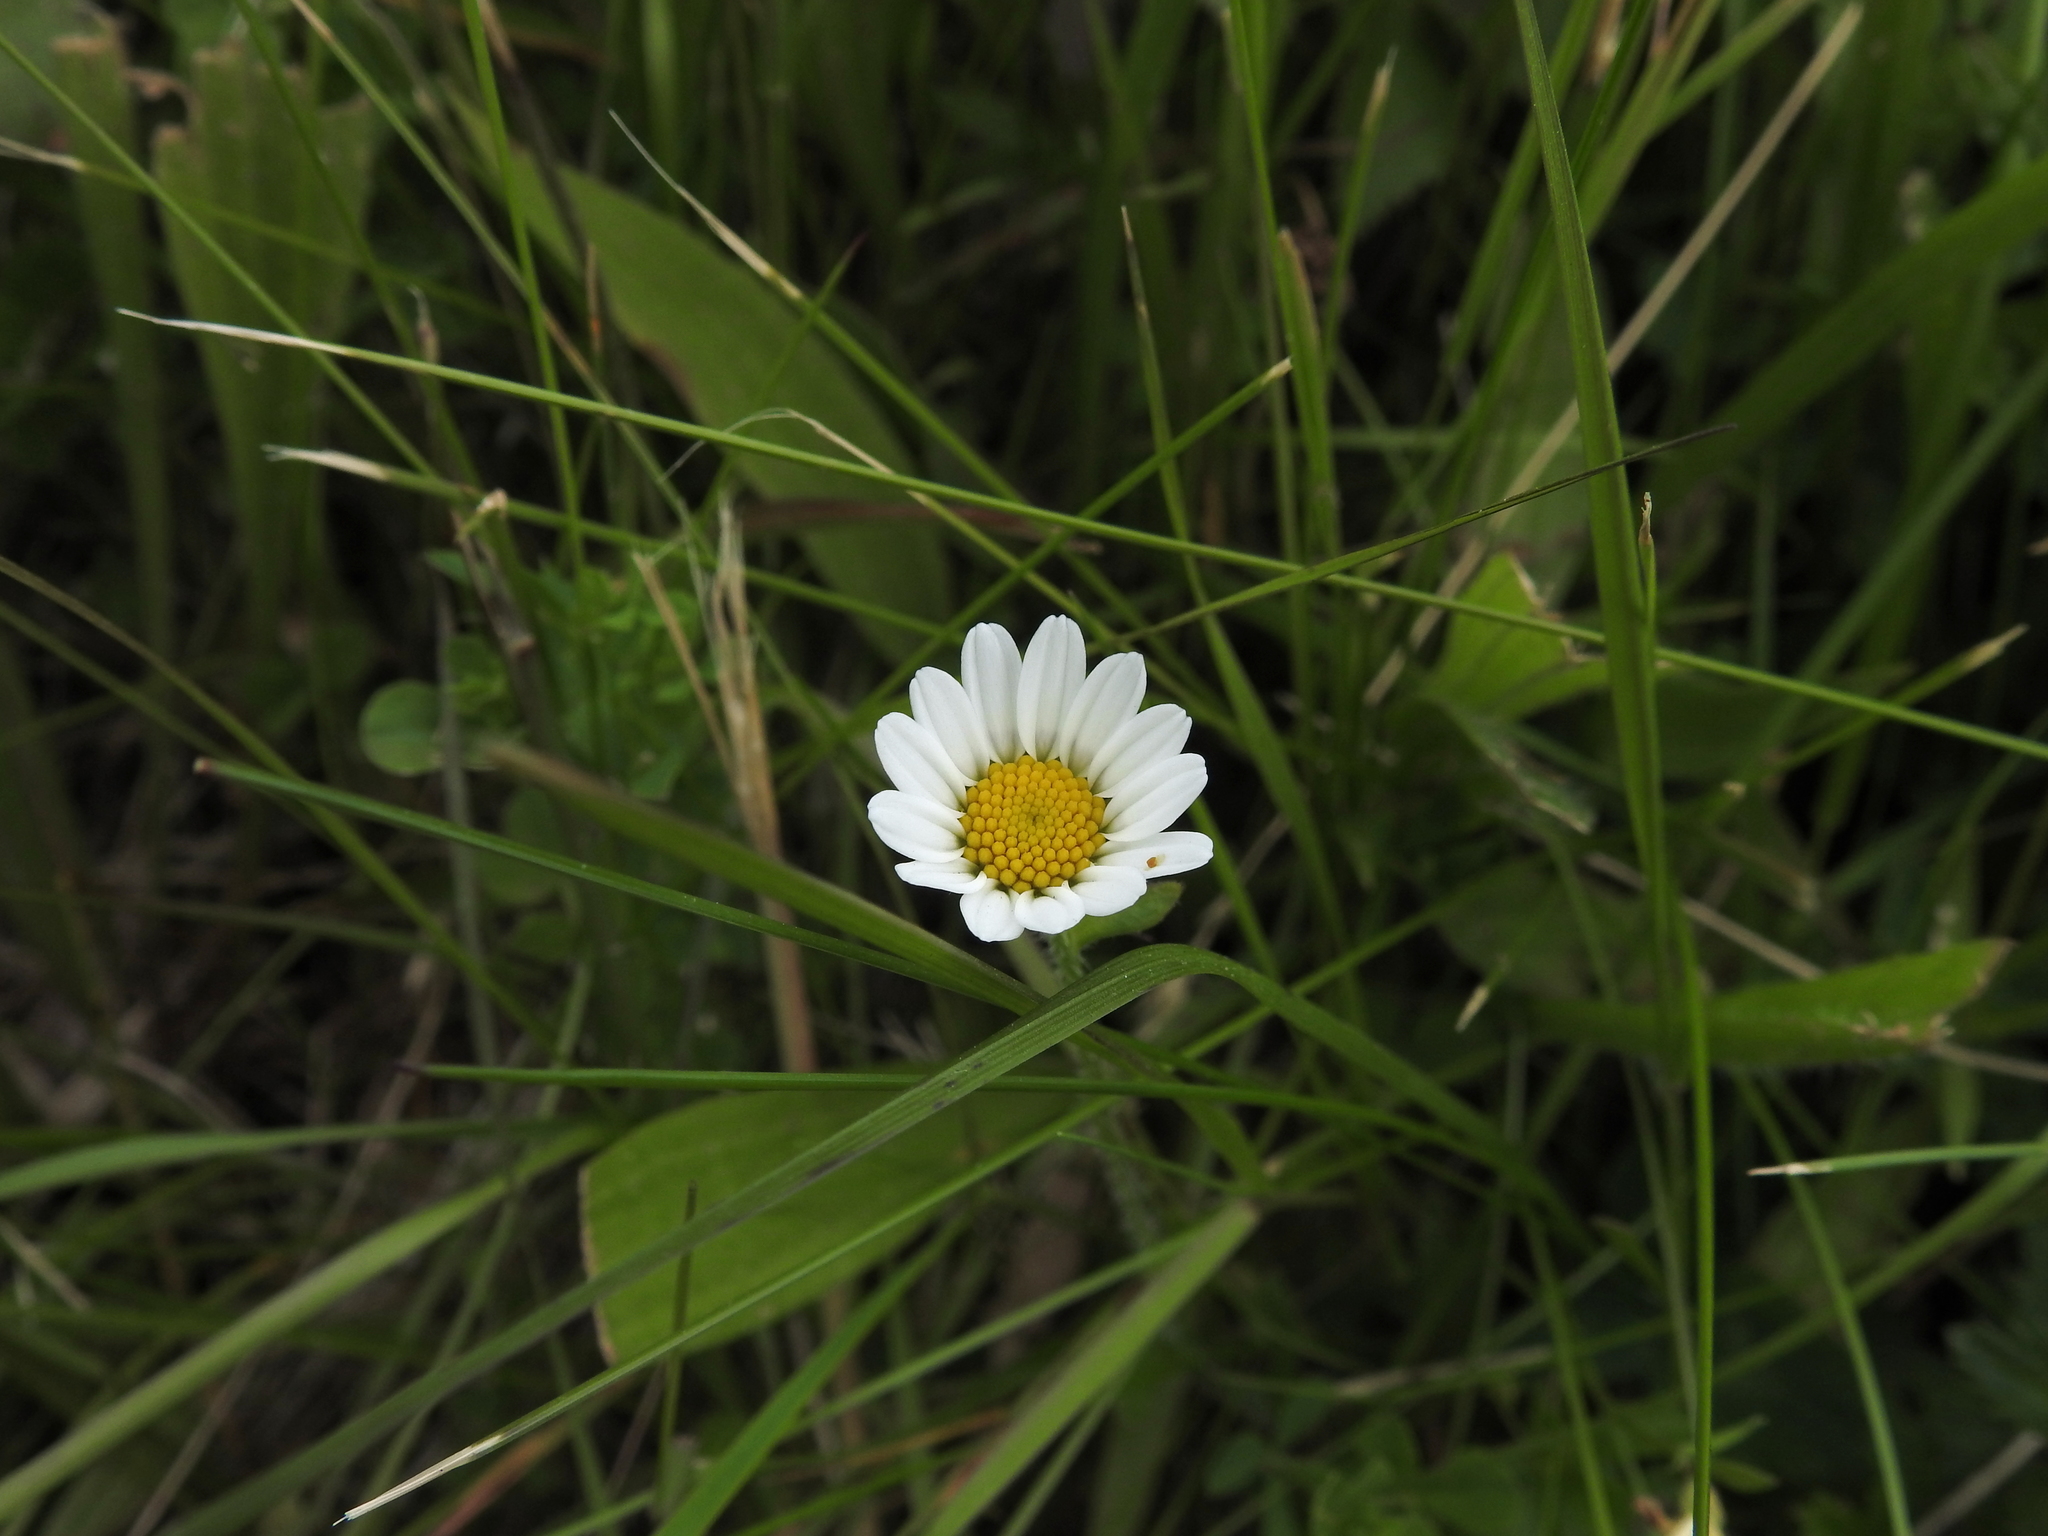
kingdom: Plantae
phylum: Tracheophyta
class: Magnoliopsida
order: Asterales
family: Asteraceae
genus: Bellis
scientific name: Bellis perennis
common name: Lawndaisy
